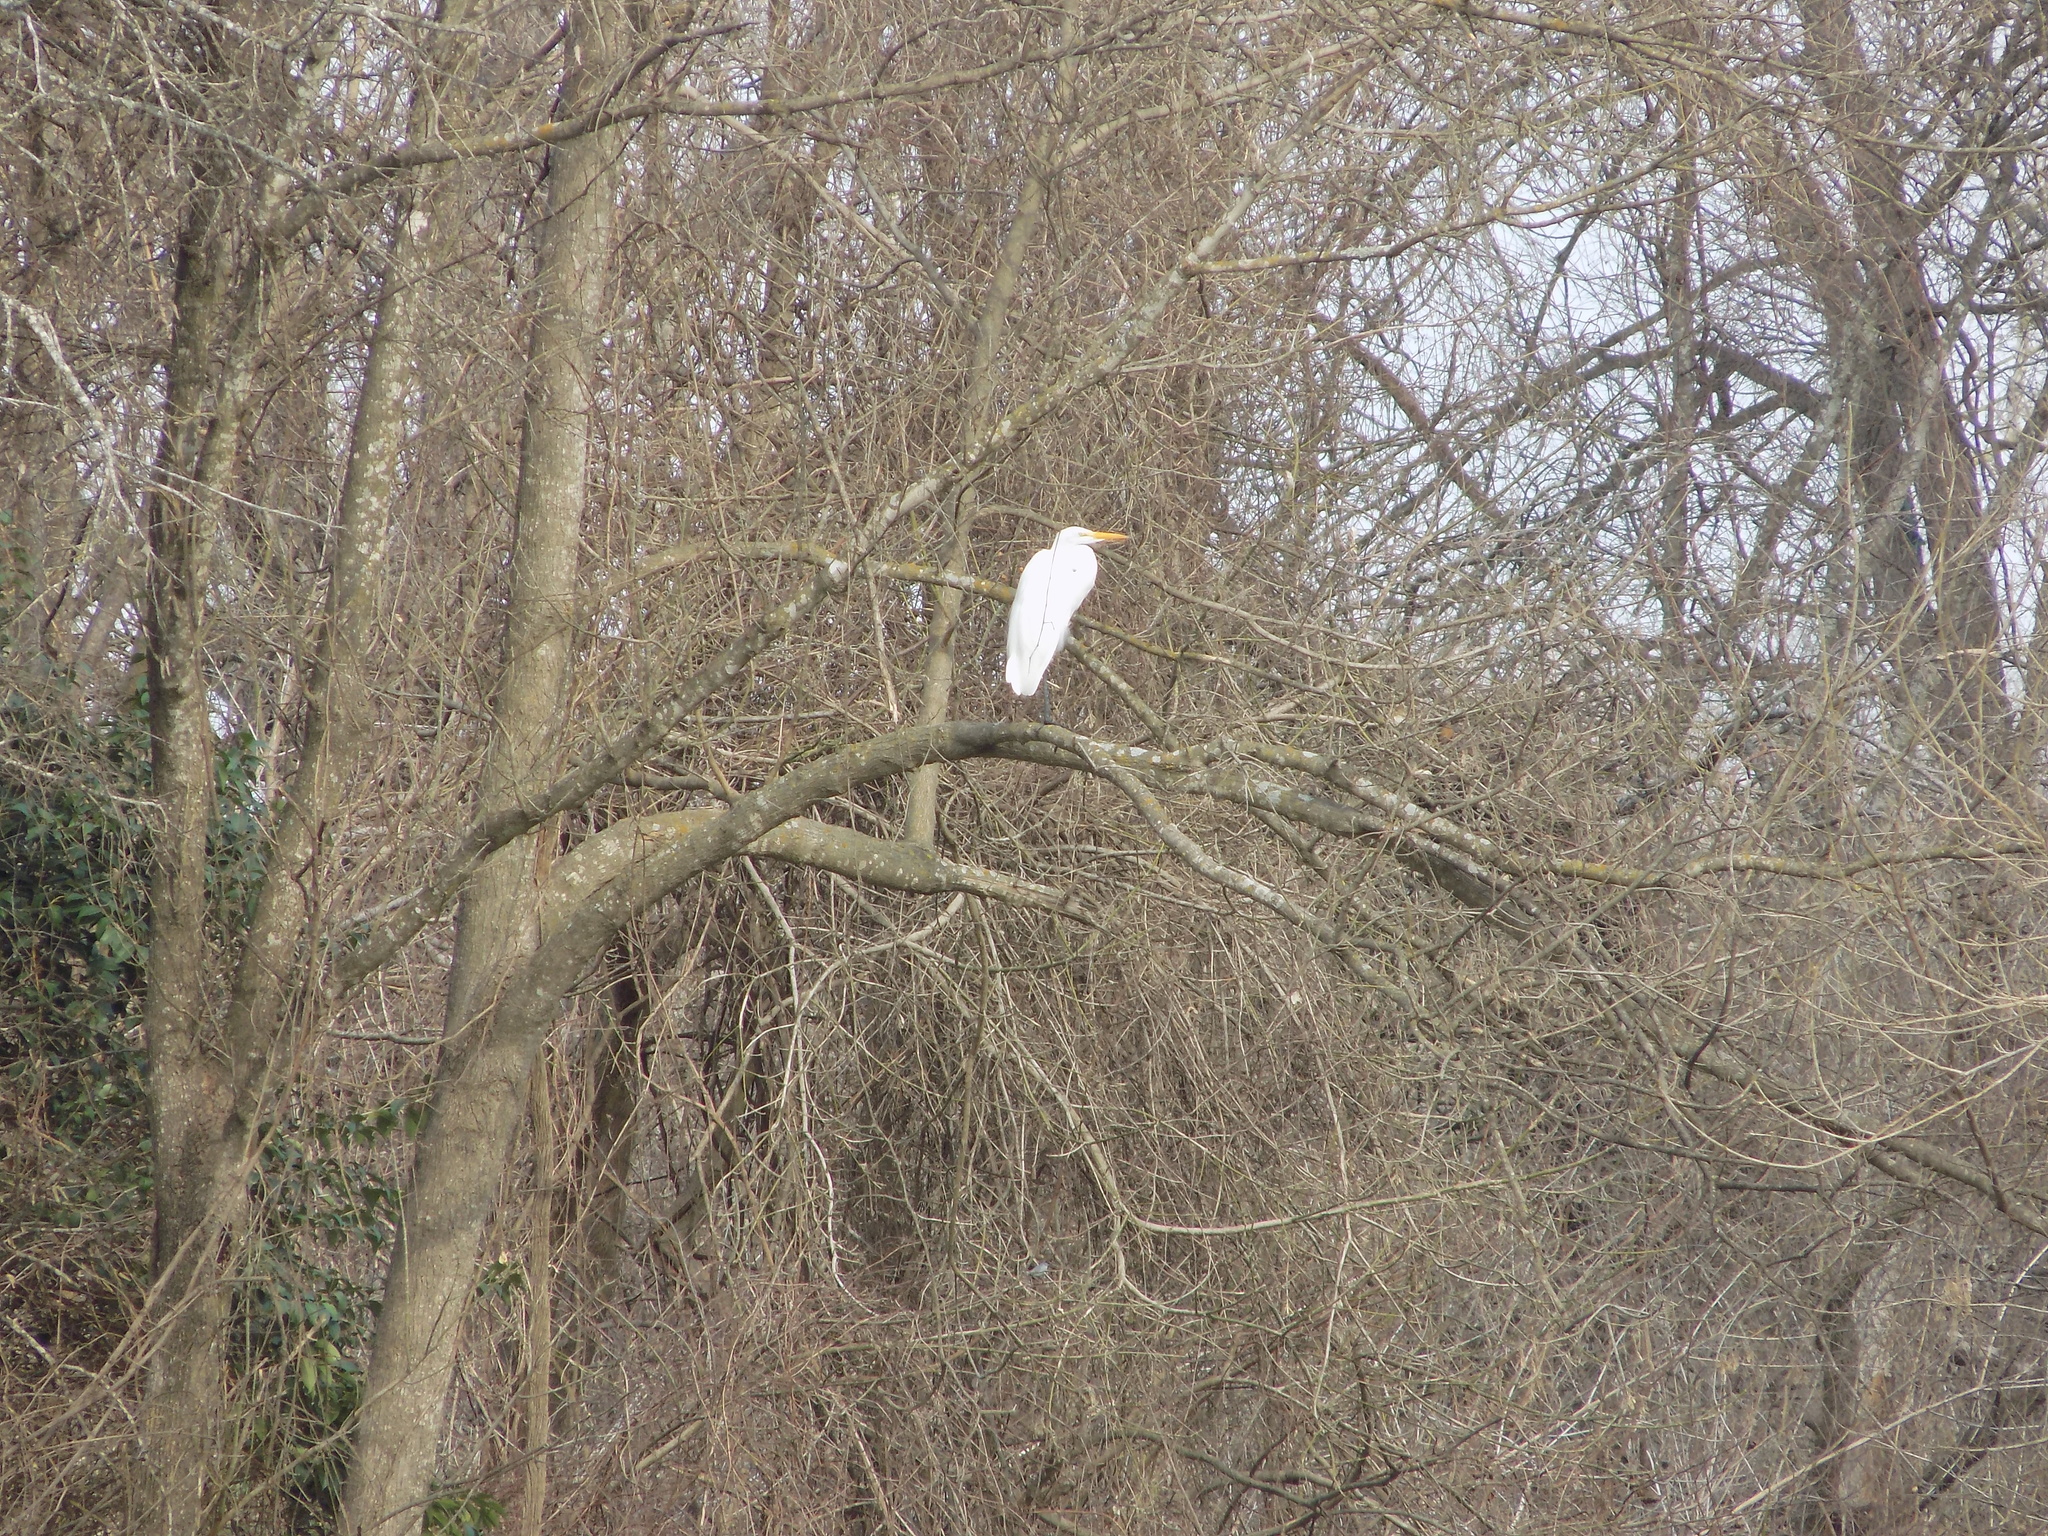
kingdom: Animalia
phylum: Chordata
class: Aves
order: Pelecaniformes
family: Ardeidae
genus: Ardea
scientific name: Ardea alba
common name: Great egret
